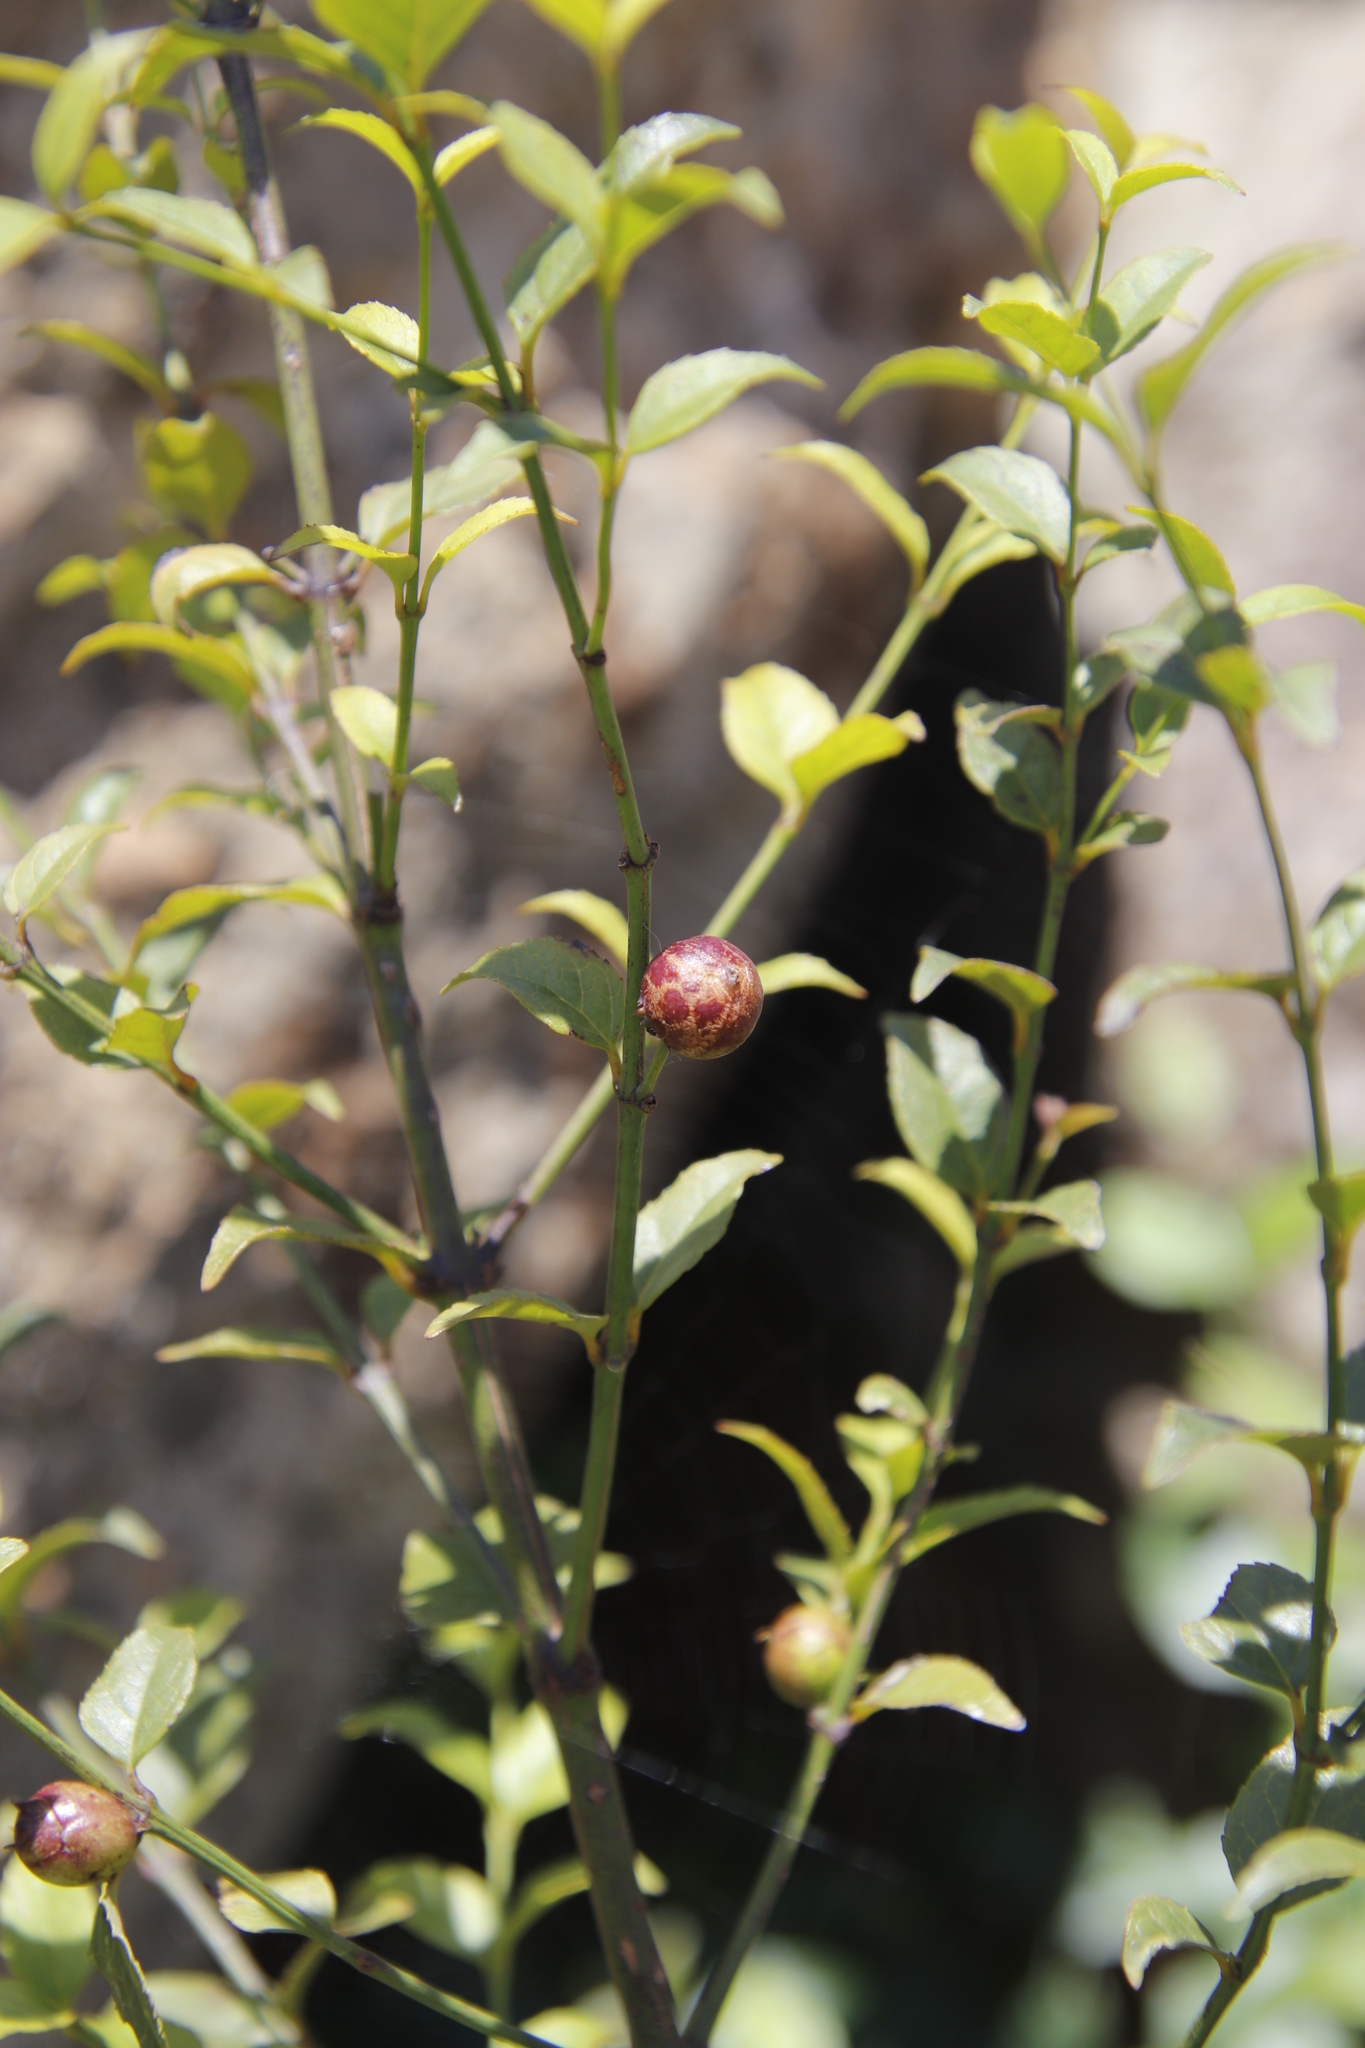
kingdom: Plantae
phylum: Tracheophyta
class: Magnoliopsida
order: Lamiales
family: Stilbaceae
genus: Halleria
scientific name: Halleria lucida
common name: Tree fuschia
